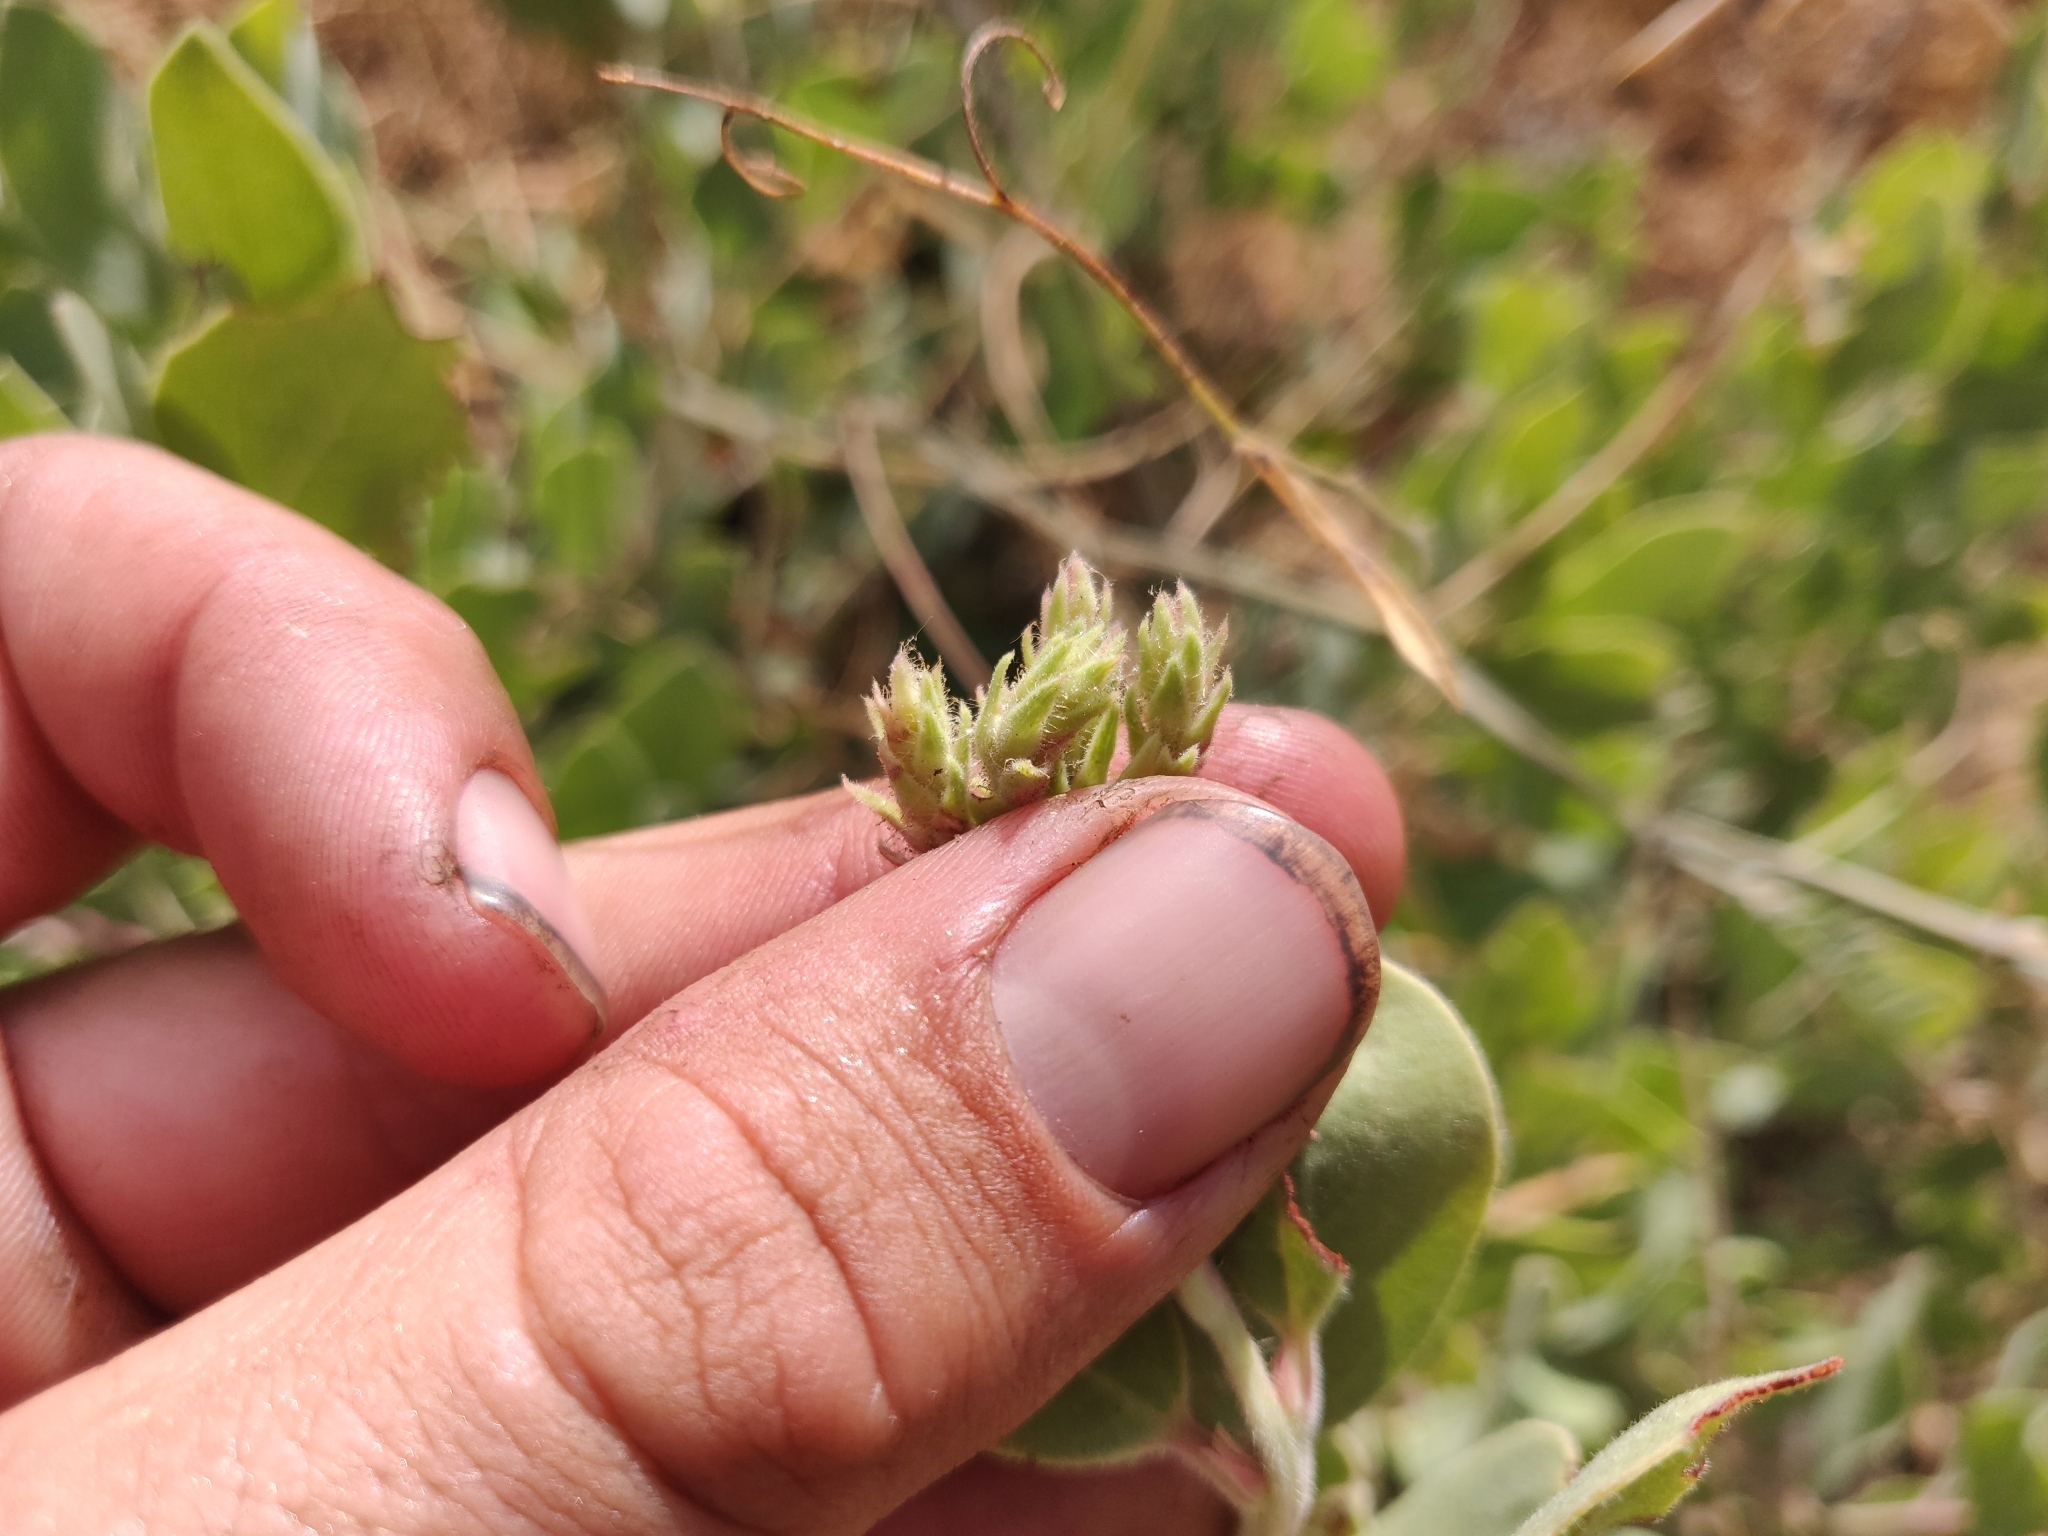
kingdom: Plantae
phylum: Tracheophyta
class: Magnoliopsida
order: Ericales
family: Ericaceae
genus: Arctostaphylos
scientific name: Arctostaphylos glandulosa
